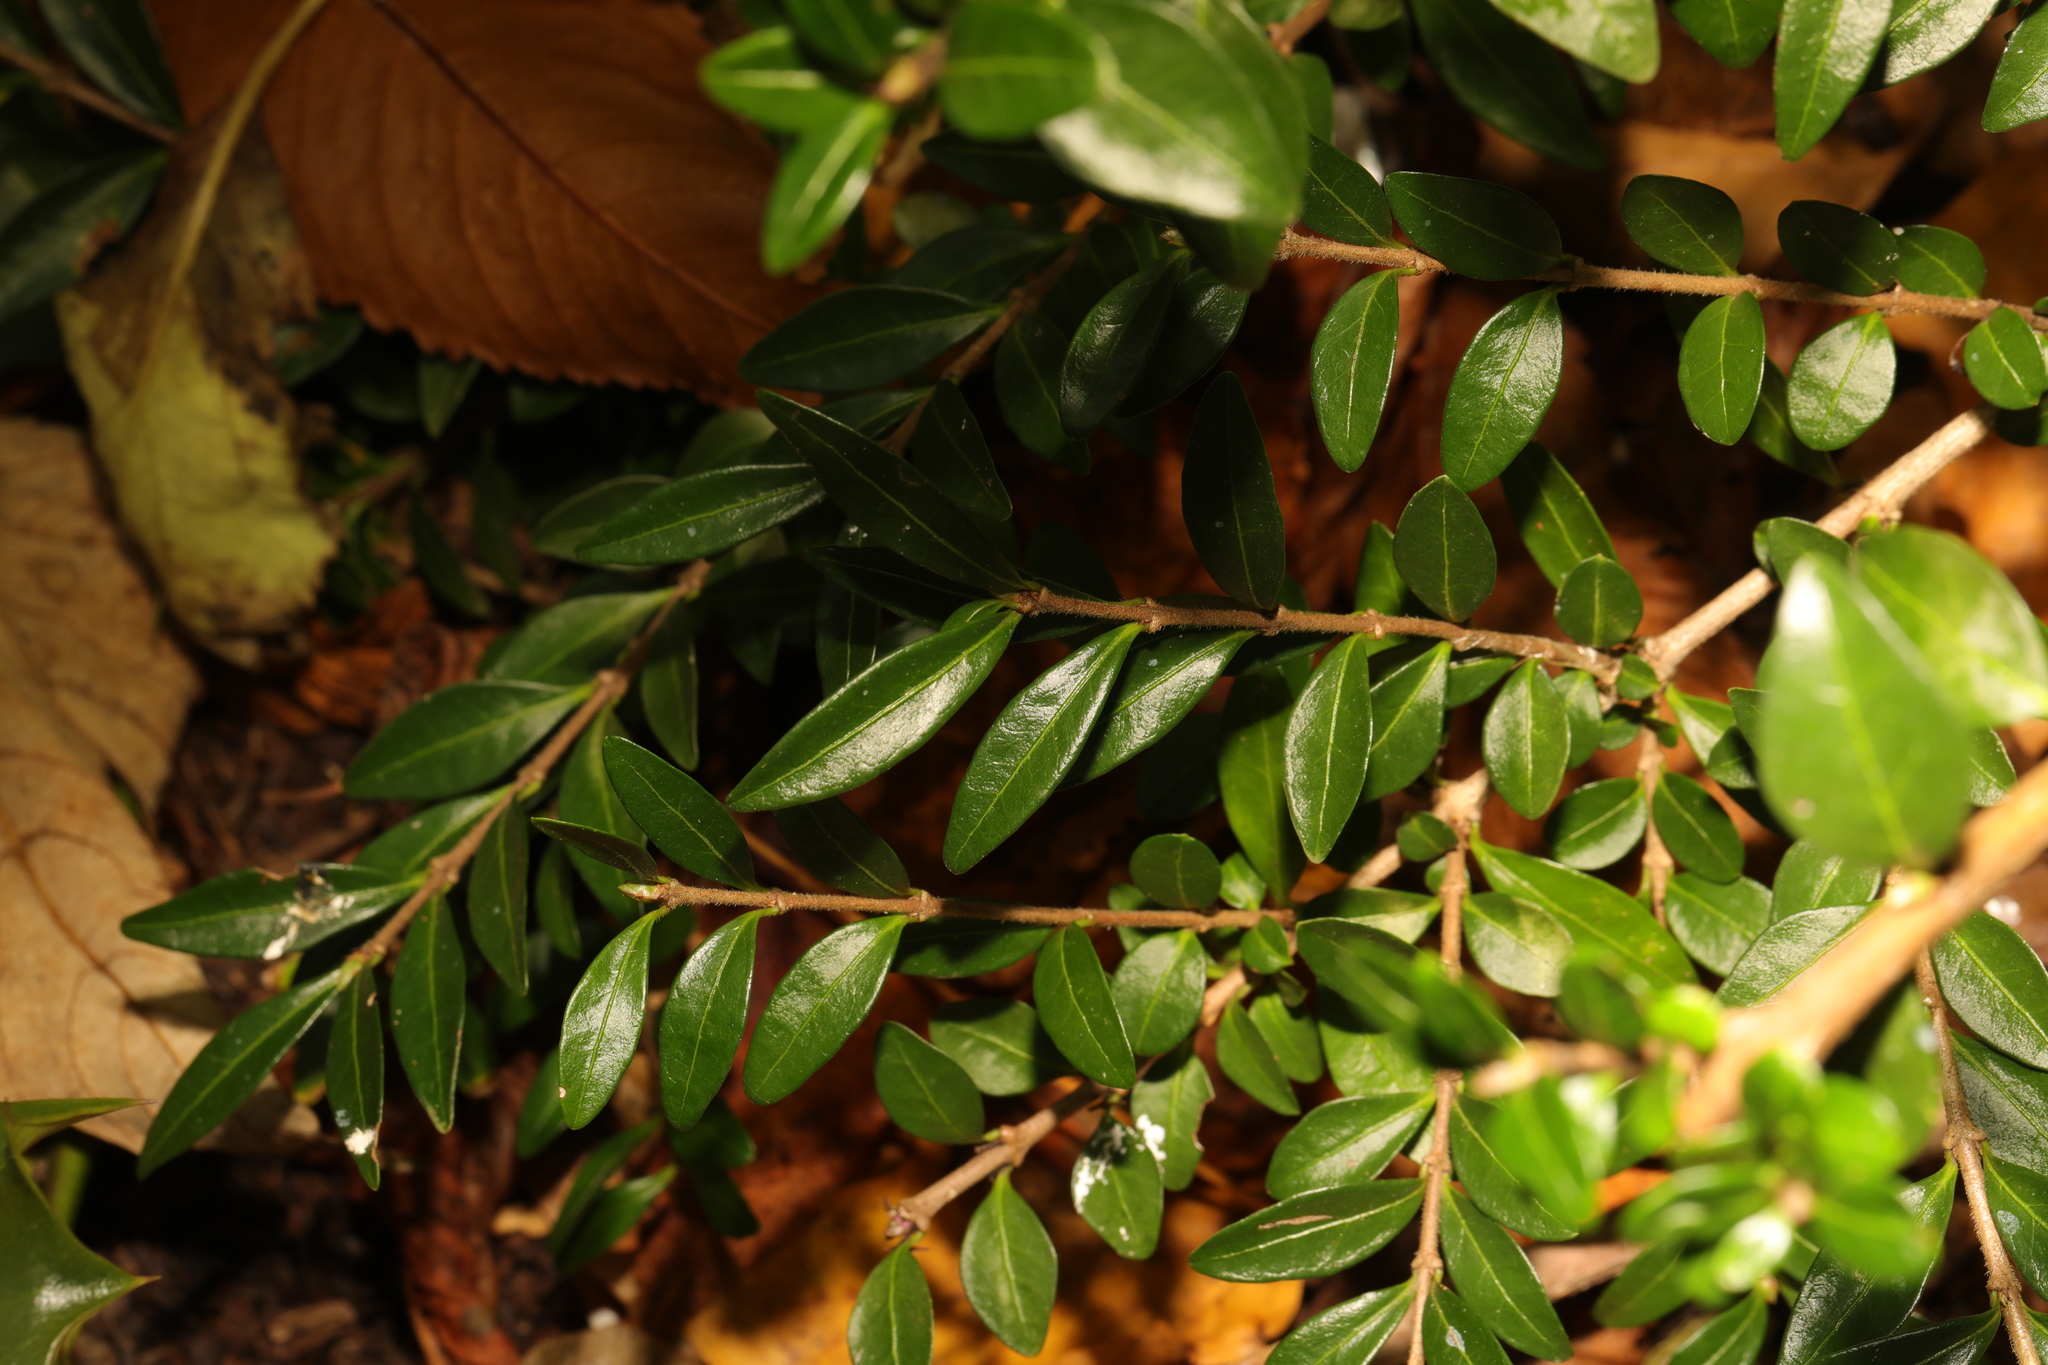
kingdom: Plantae
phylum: Tracheophyta
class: Magnoliopsida
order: Dipsacales
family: Caprifoliaceae
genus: Lonicera
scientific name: Lonicera ligustrina
